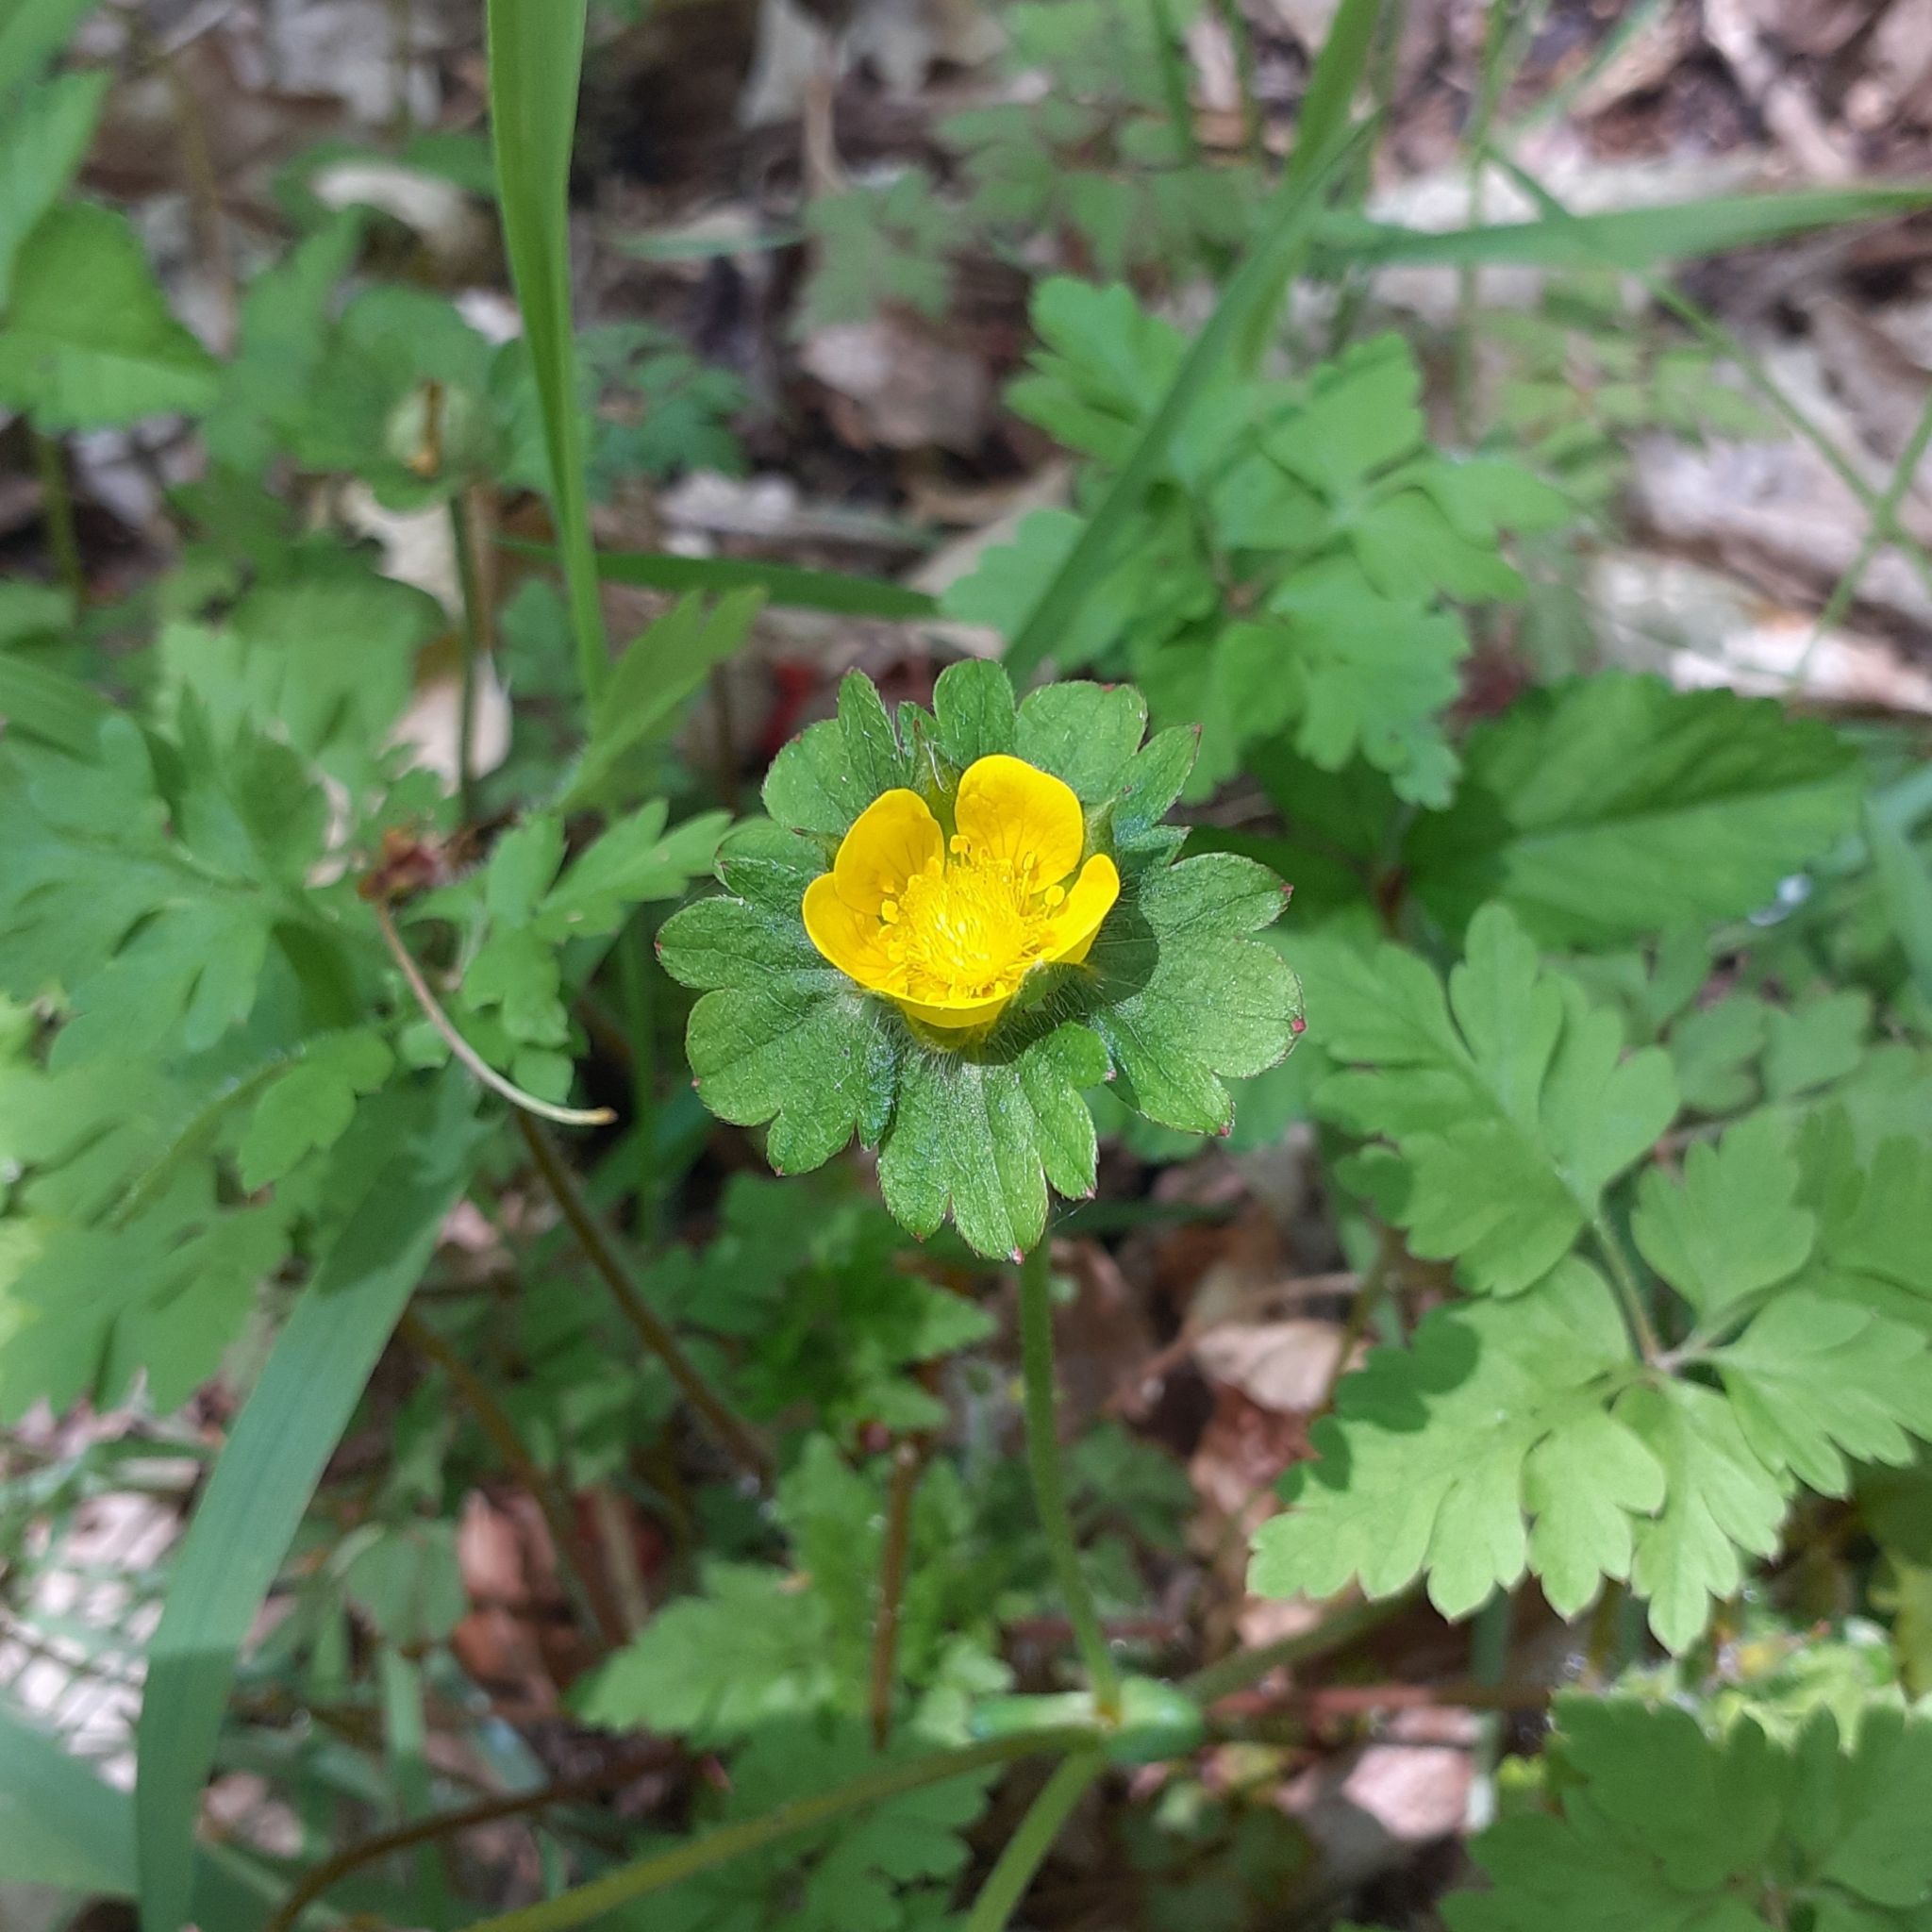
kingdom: Plantae
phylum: Tracheophyta
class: Magnoliopsida
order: Rosales
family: Rosaceae
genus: Potentilla
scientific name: Potentilla indica
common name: Yellow-flowered strawberry
